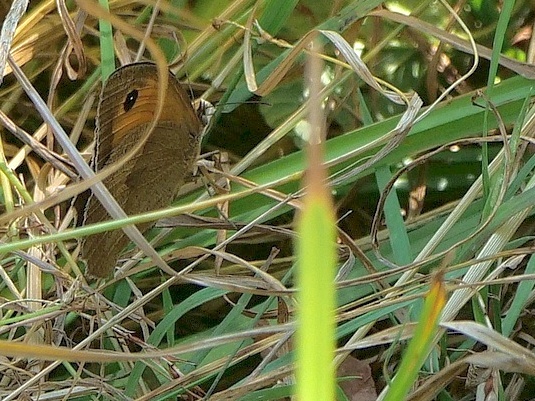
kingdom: Animalia
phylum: Arthropoda
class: Insecta
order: Lepidoptera
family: Nymphalidae
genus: Maniola
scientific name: Maniola jurtina
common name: Meadow brown
